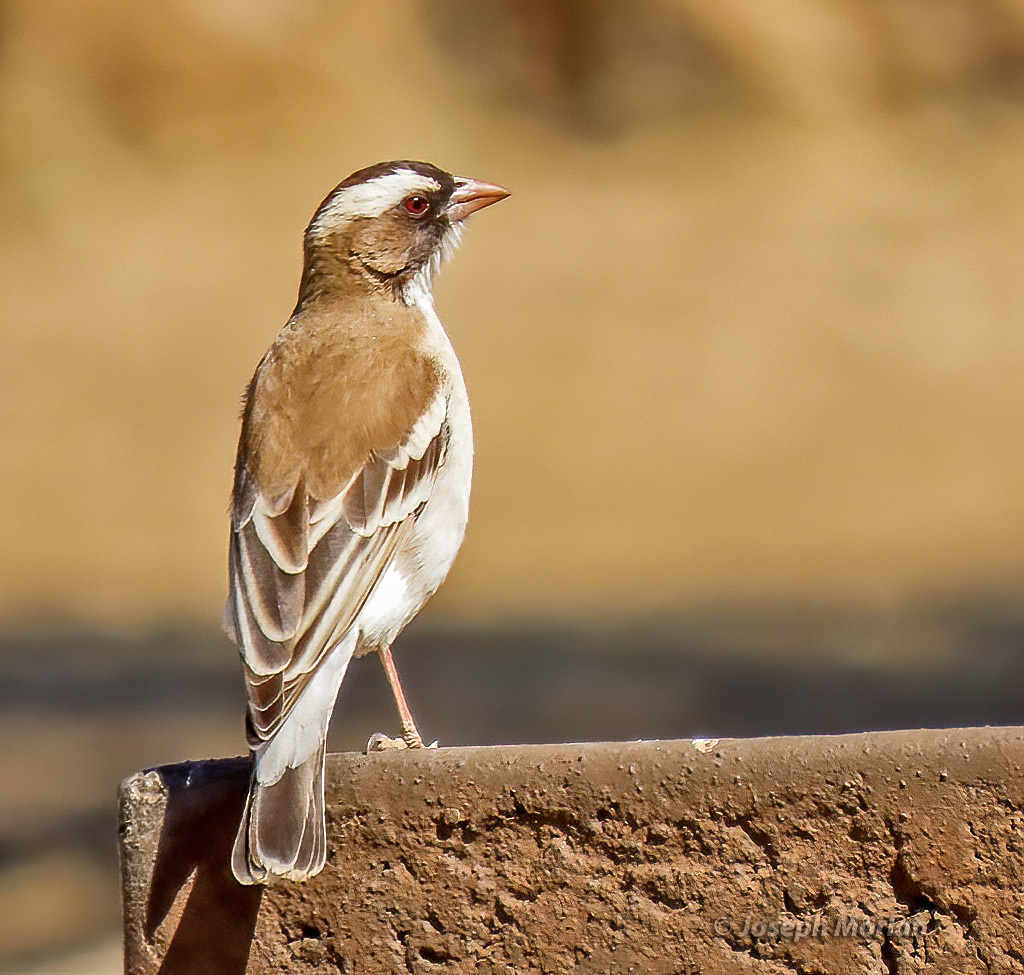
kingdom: Animalia
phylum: Chordata
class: Aves
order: Passeriformes
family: Passeridae
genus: Plocepasser
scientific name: Plocepasser mahali
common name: White-browed sparrow-weaver
